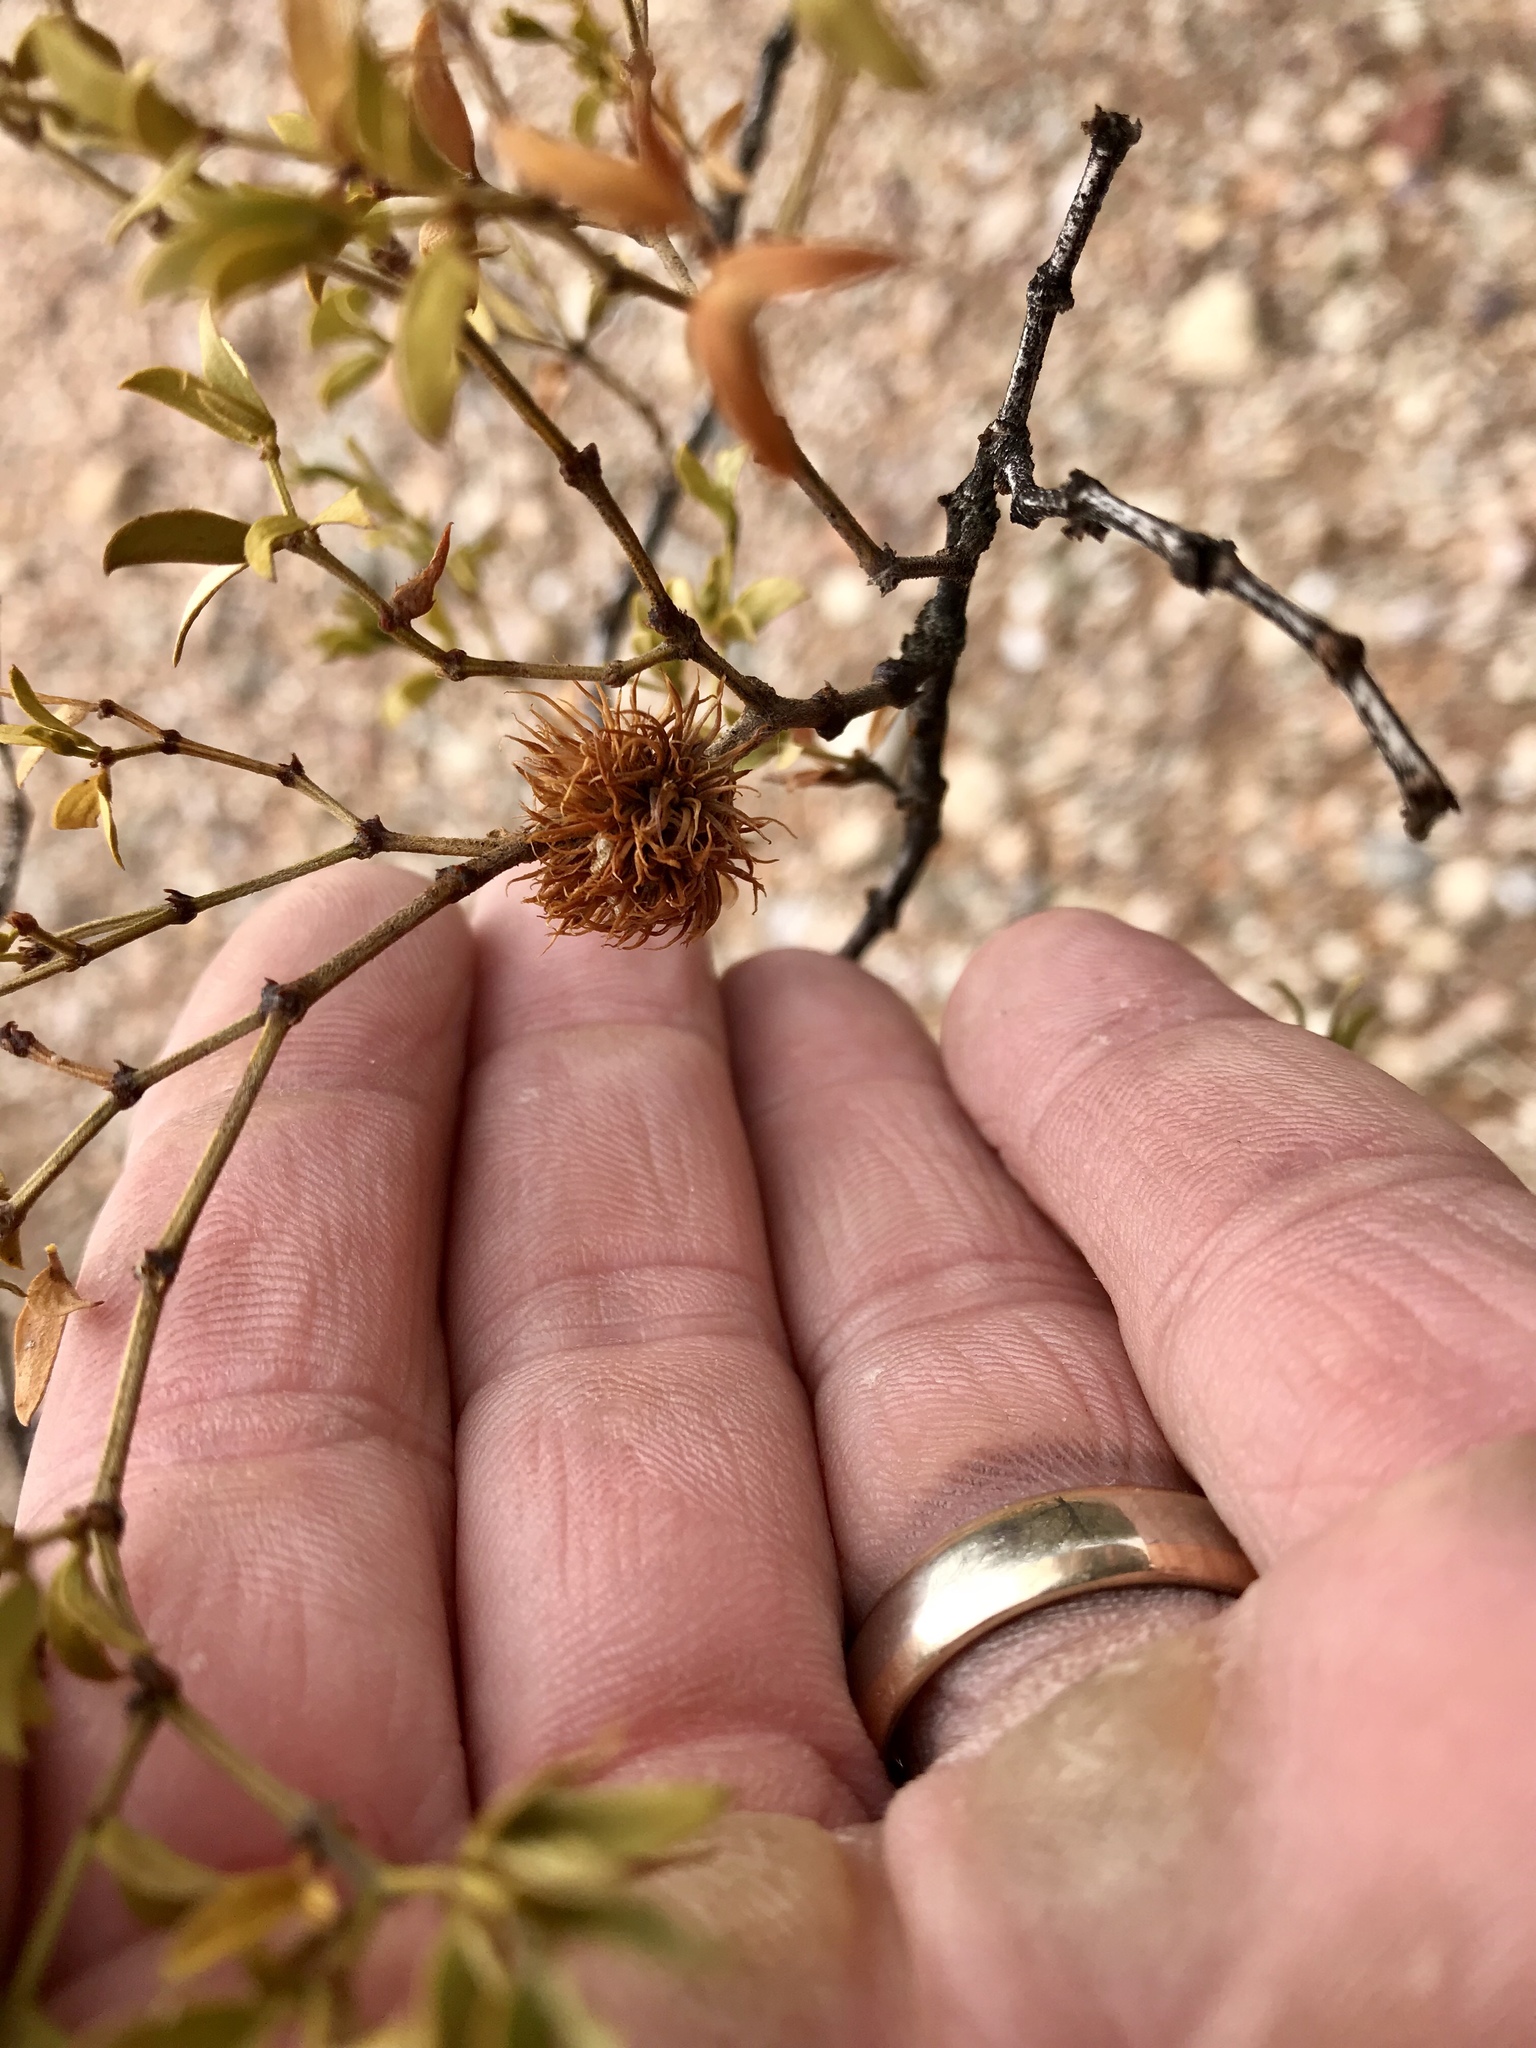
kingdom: Animalia
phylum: Arthropoda
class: Insecta
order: Diptera
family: Cecidomyiidae
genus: Asphondylia
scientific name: Asphondylia auripila
